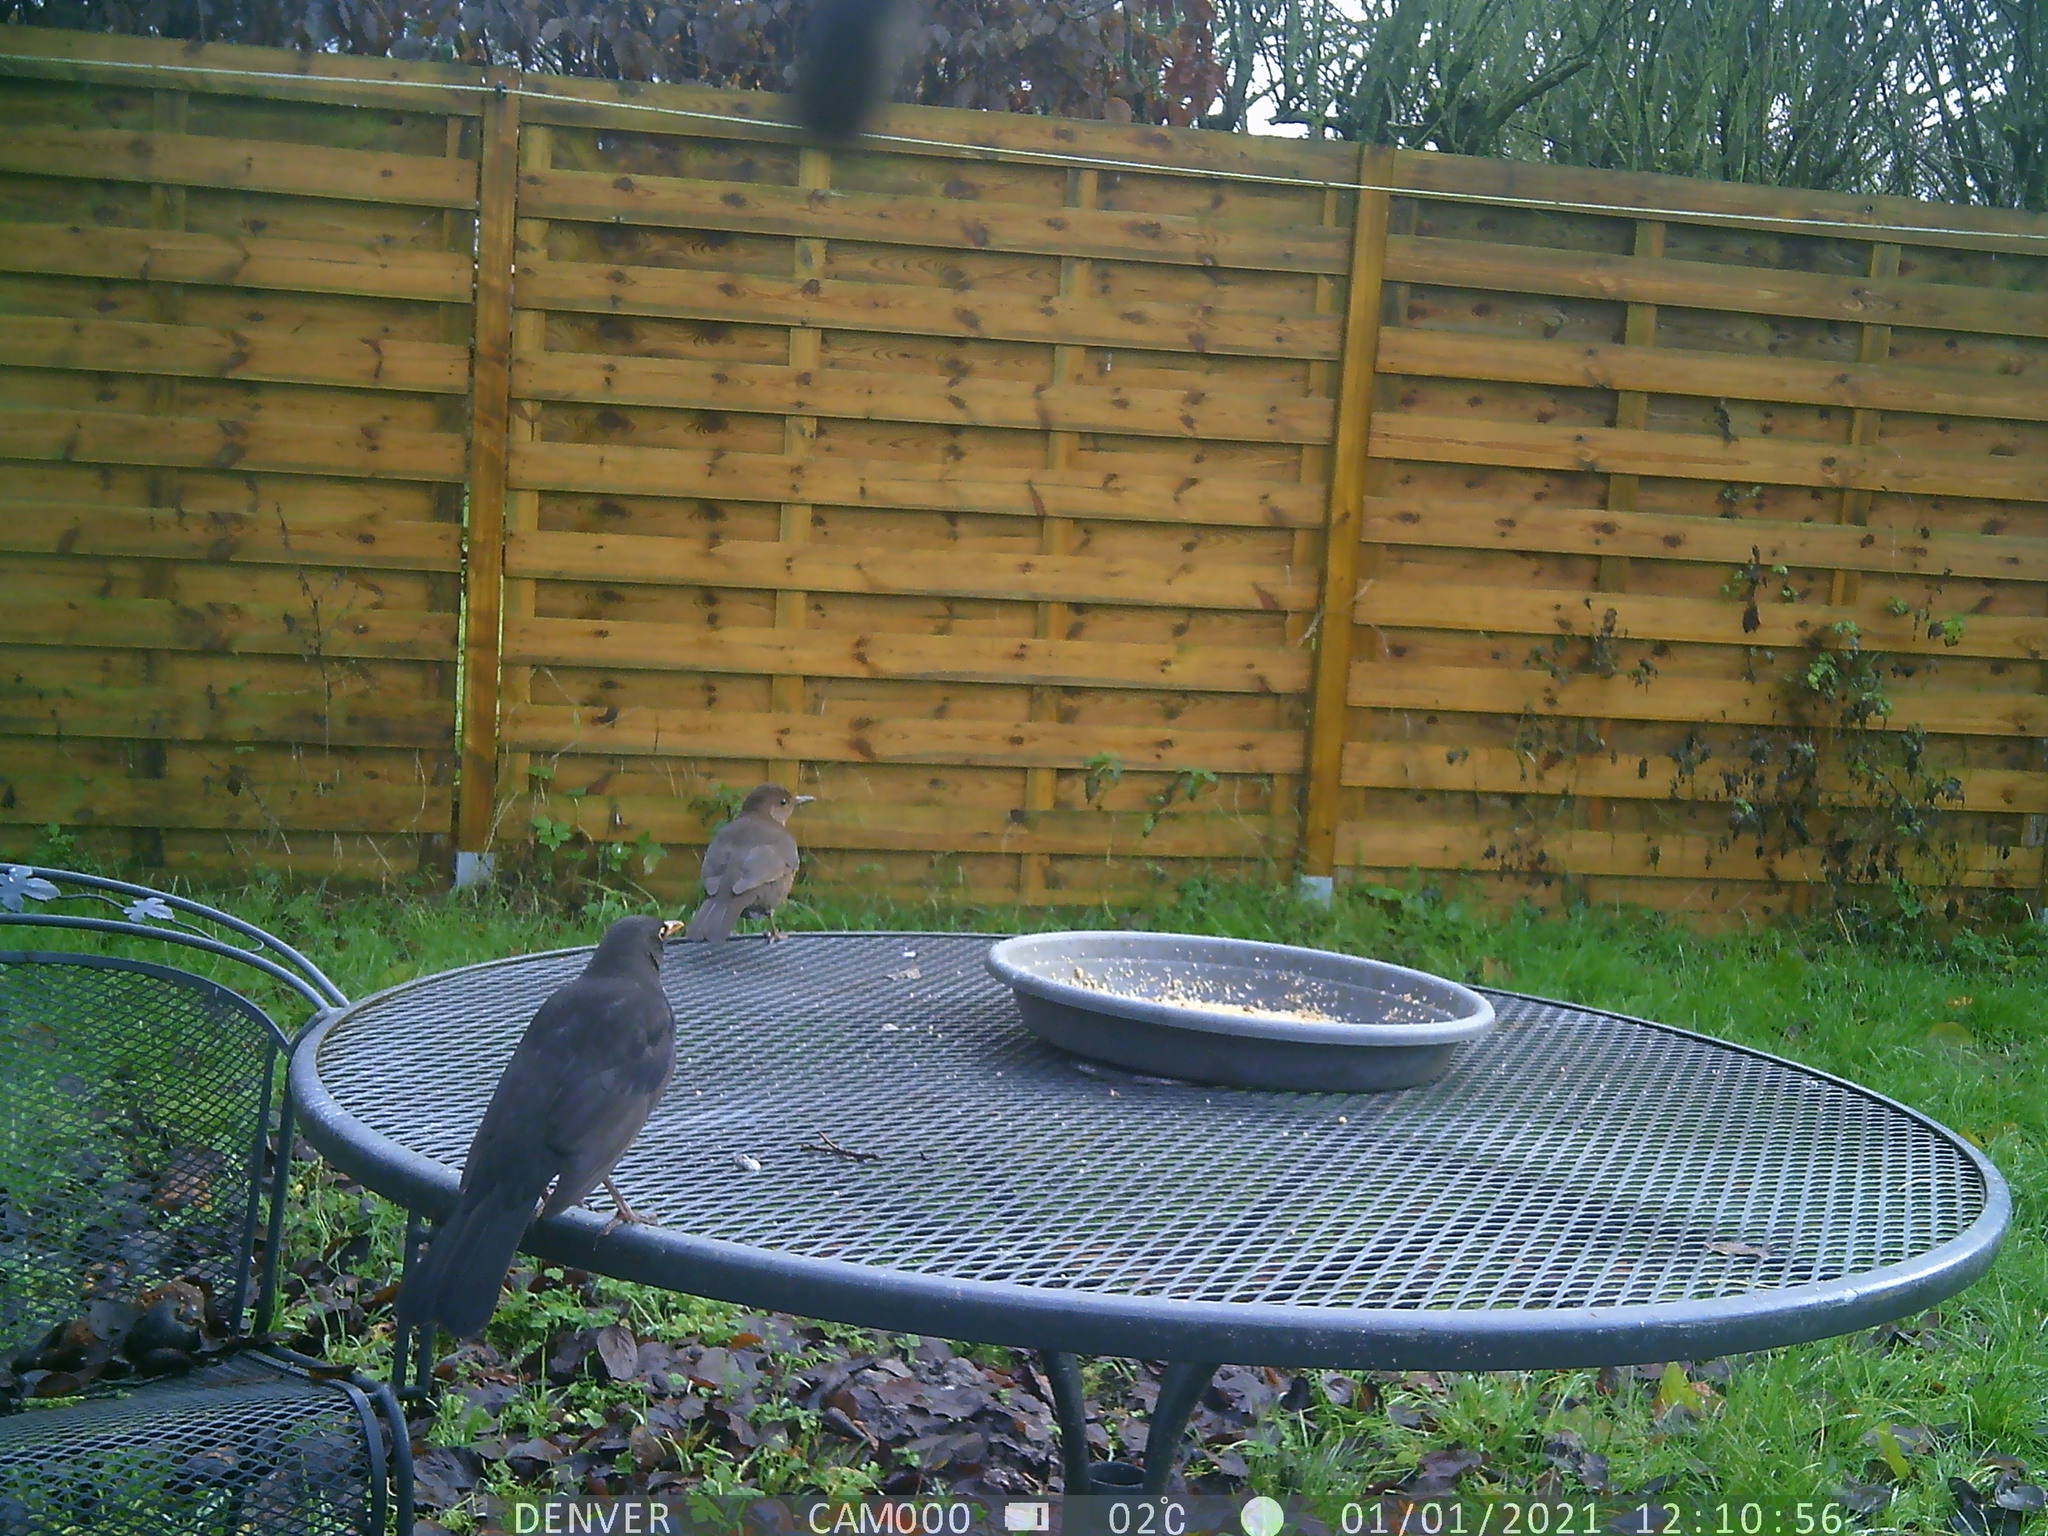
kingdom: Animalia
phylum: Chordata
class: Aves
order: Passeriformes
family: Turdidae
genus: Turdus
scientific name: Turdus merula
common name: Common blackbird
